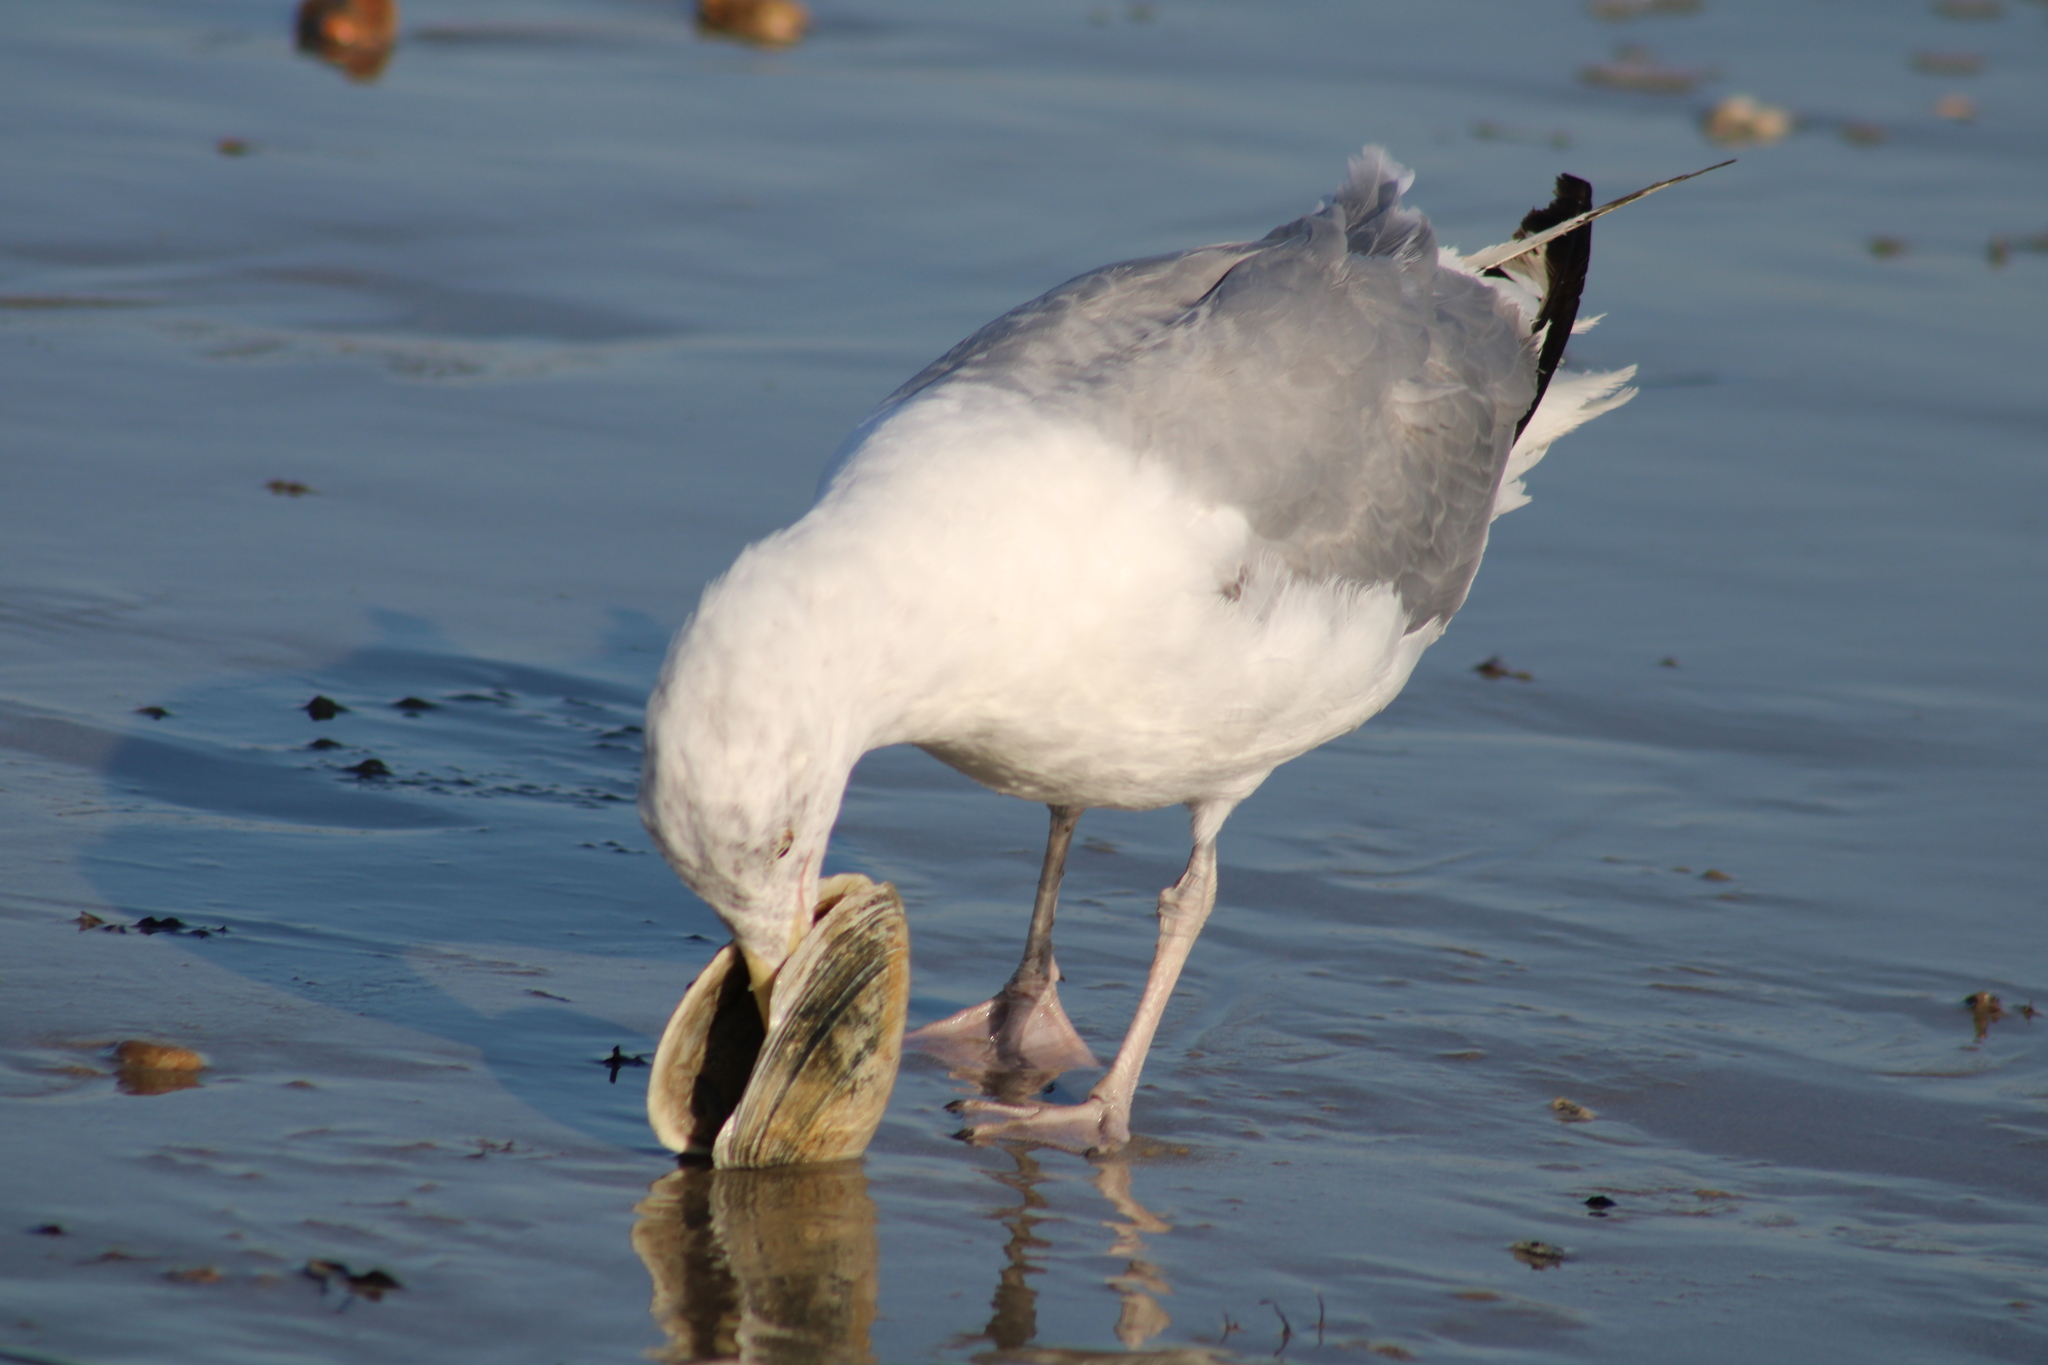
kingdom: Animalia
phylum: Chordata
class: Aves
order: Charadriiformes
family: Laridae
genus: Larus
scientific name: Larus argentatus
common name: Herring gull
